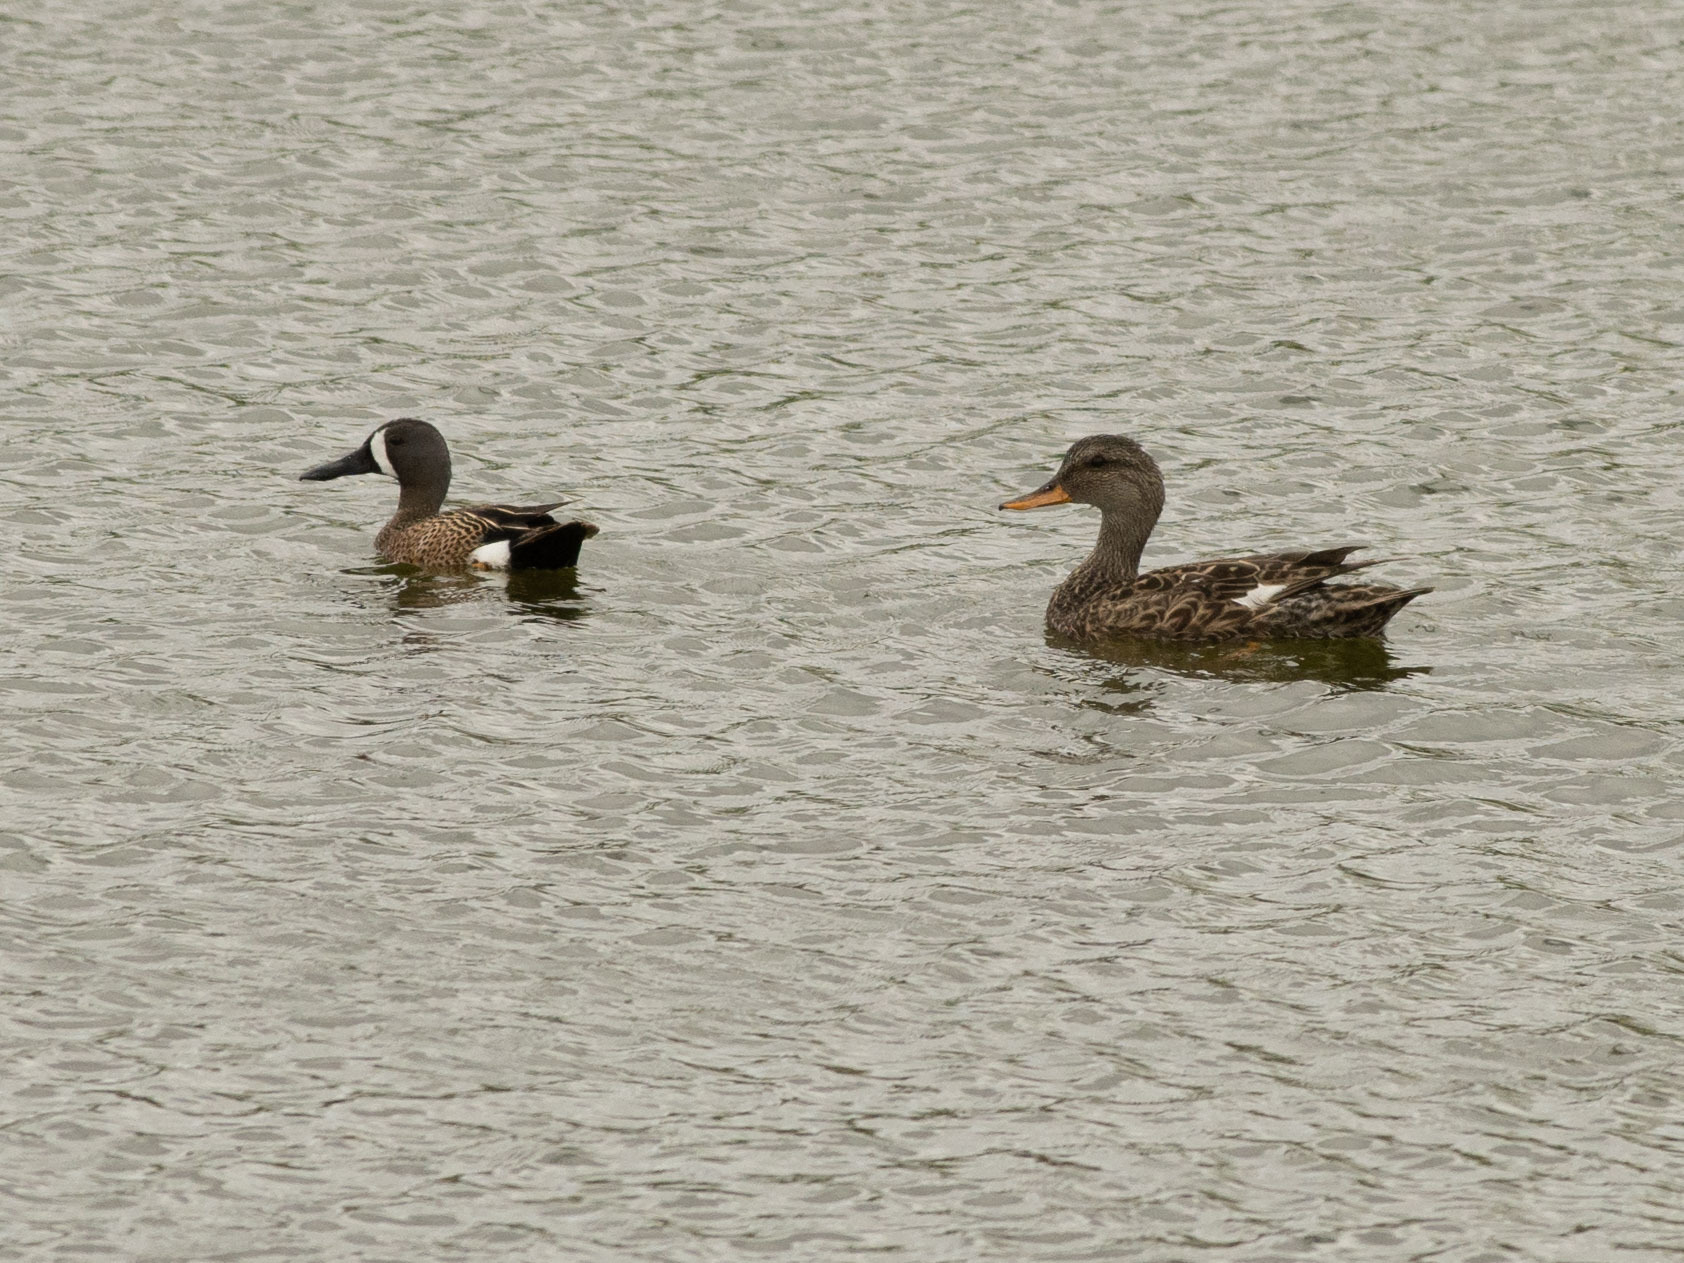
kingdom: Animalia
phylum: Chordata
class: Aves
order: Anseriformes
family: Anatidae
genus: Mareca
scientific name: Mareca strepera
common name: Gadwall
